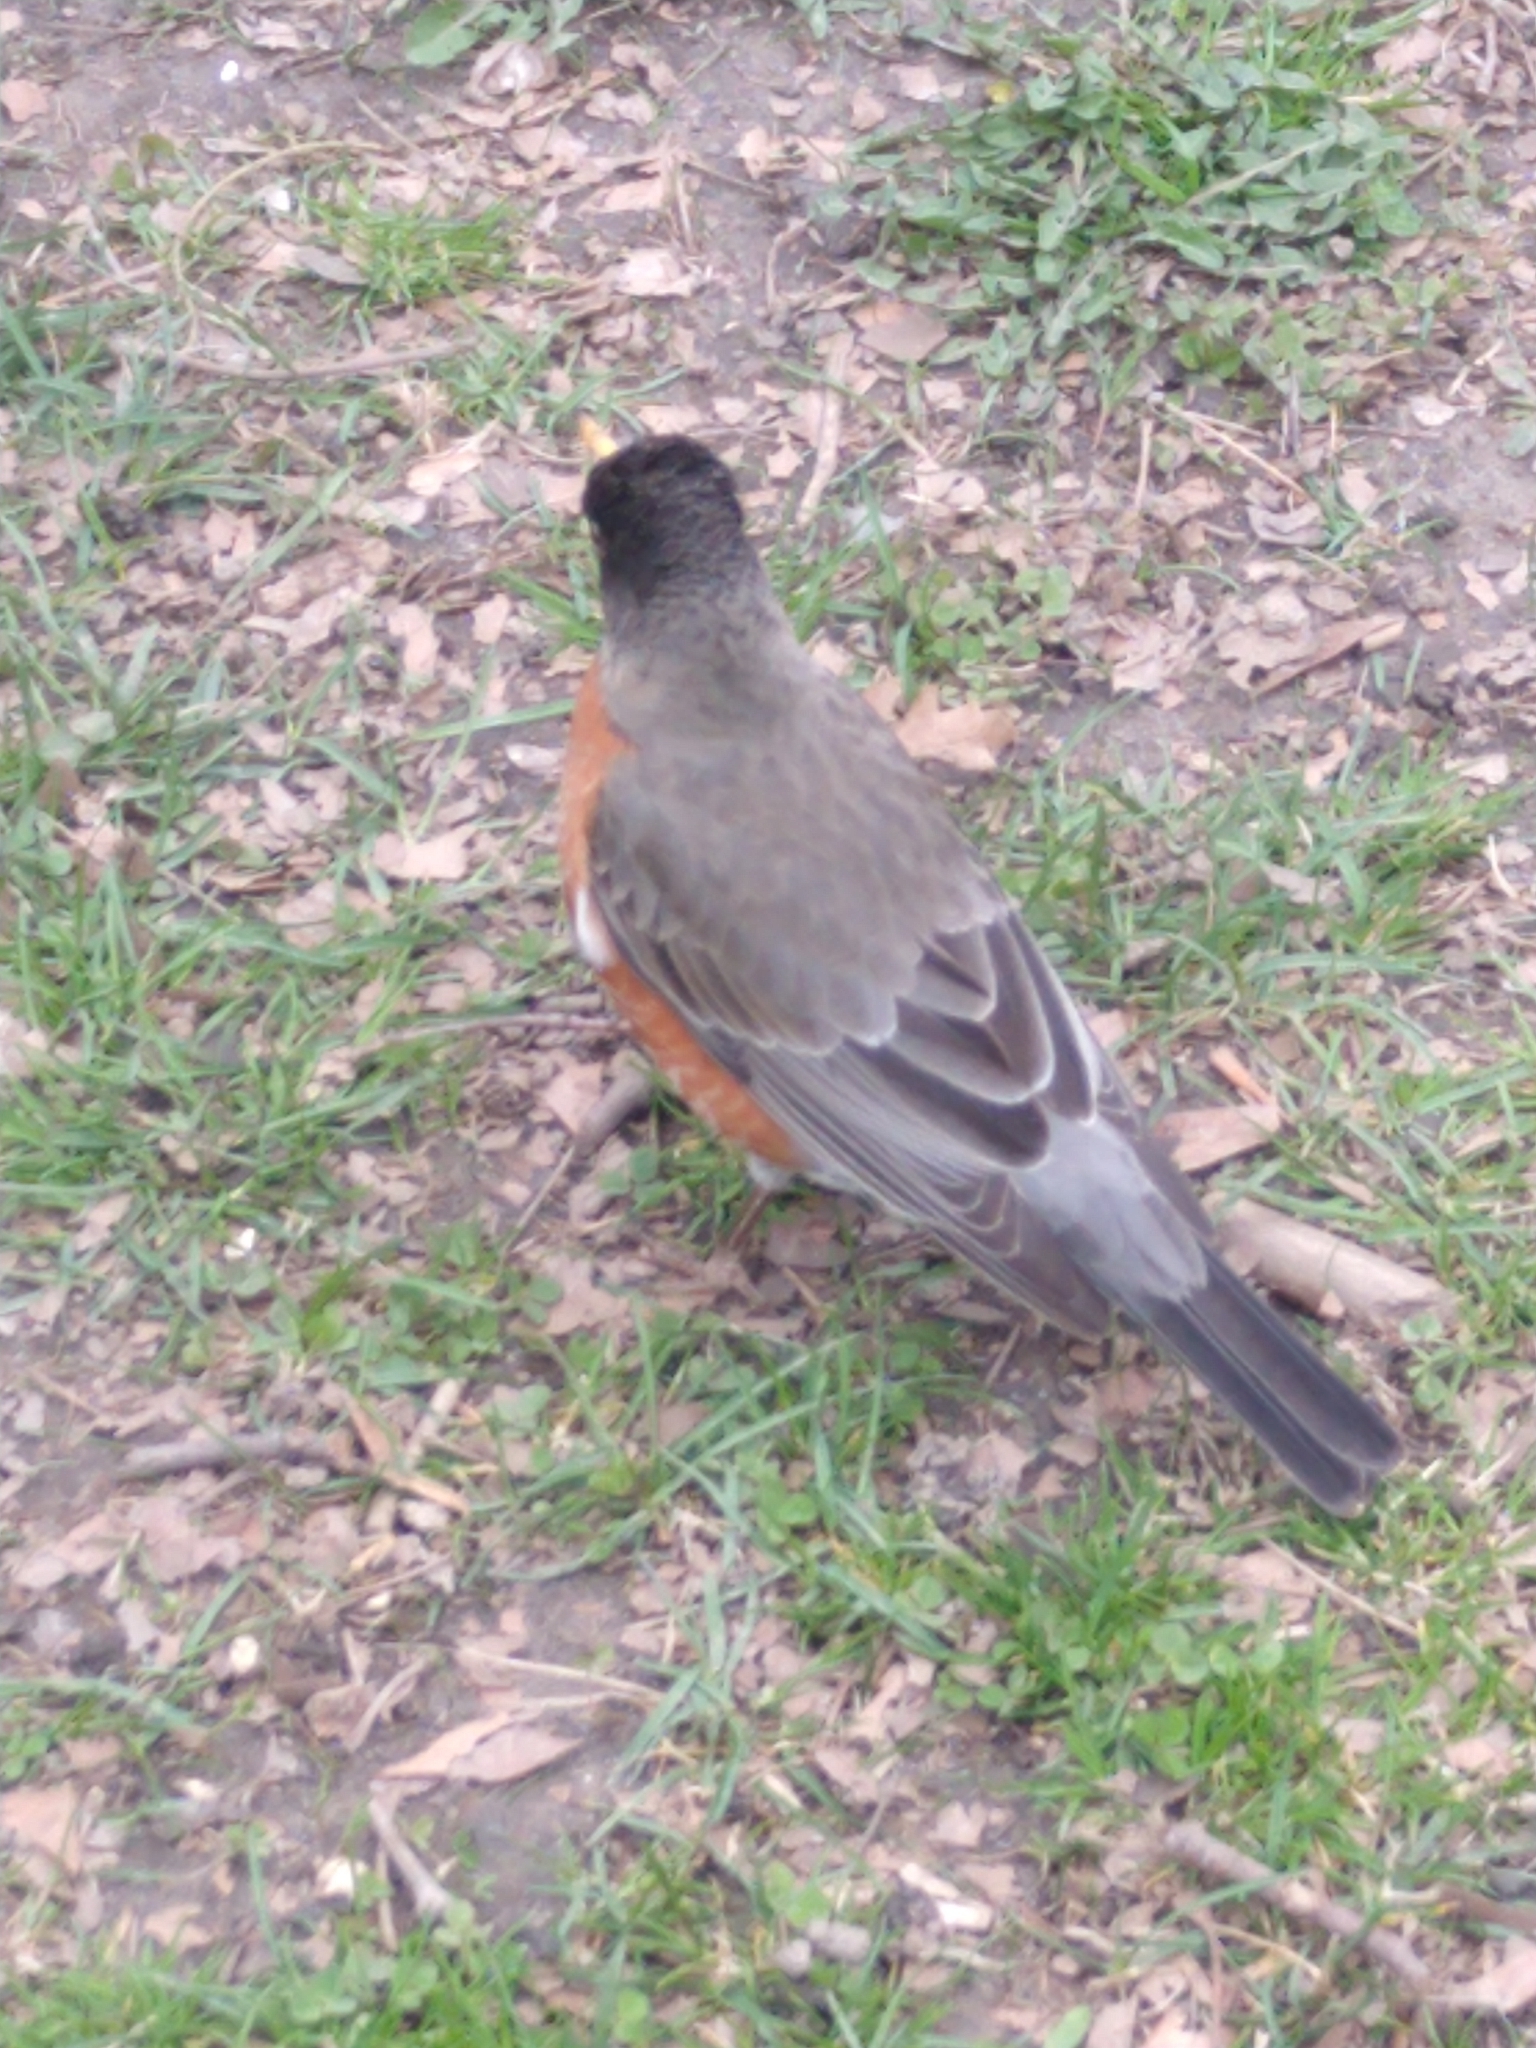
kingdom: Animalia
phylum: Chordata
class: Aves
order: Passeriformes
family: Turdidae
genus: Turdus
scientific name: Turdus migratorius
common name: American robin
